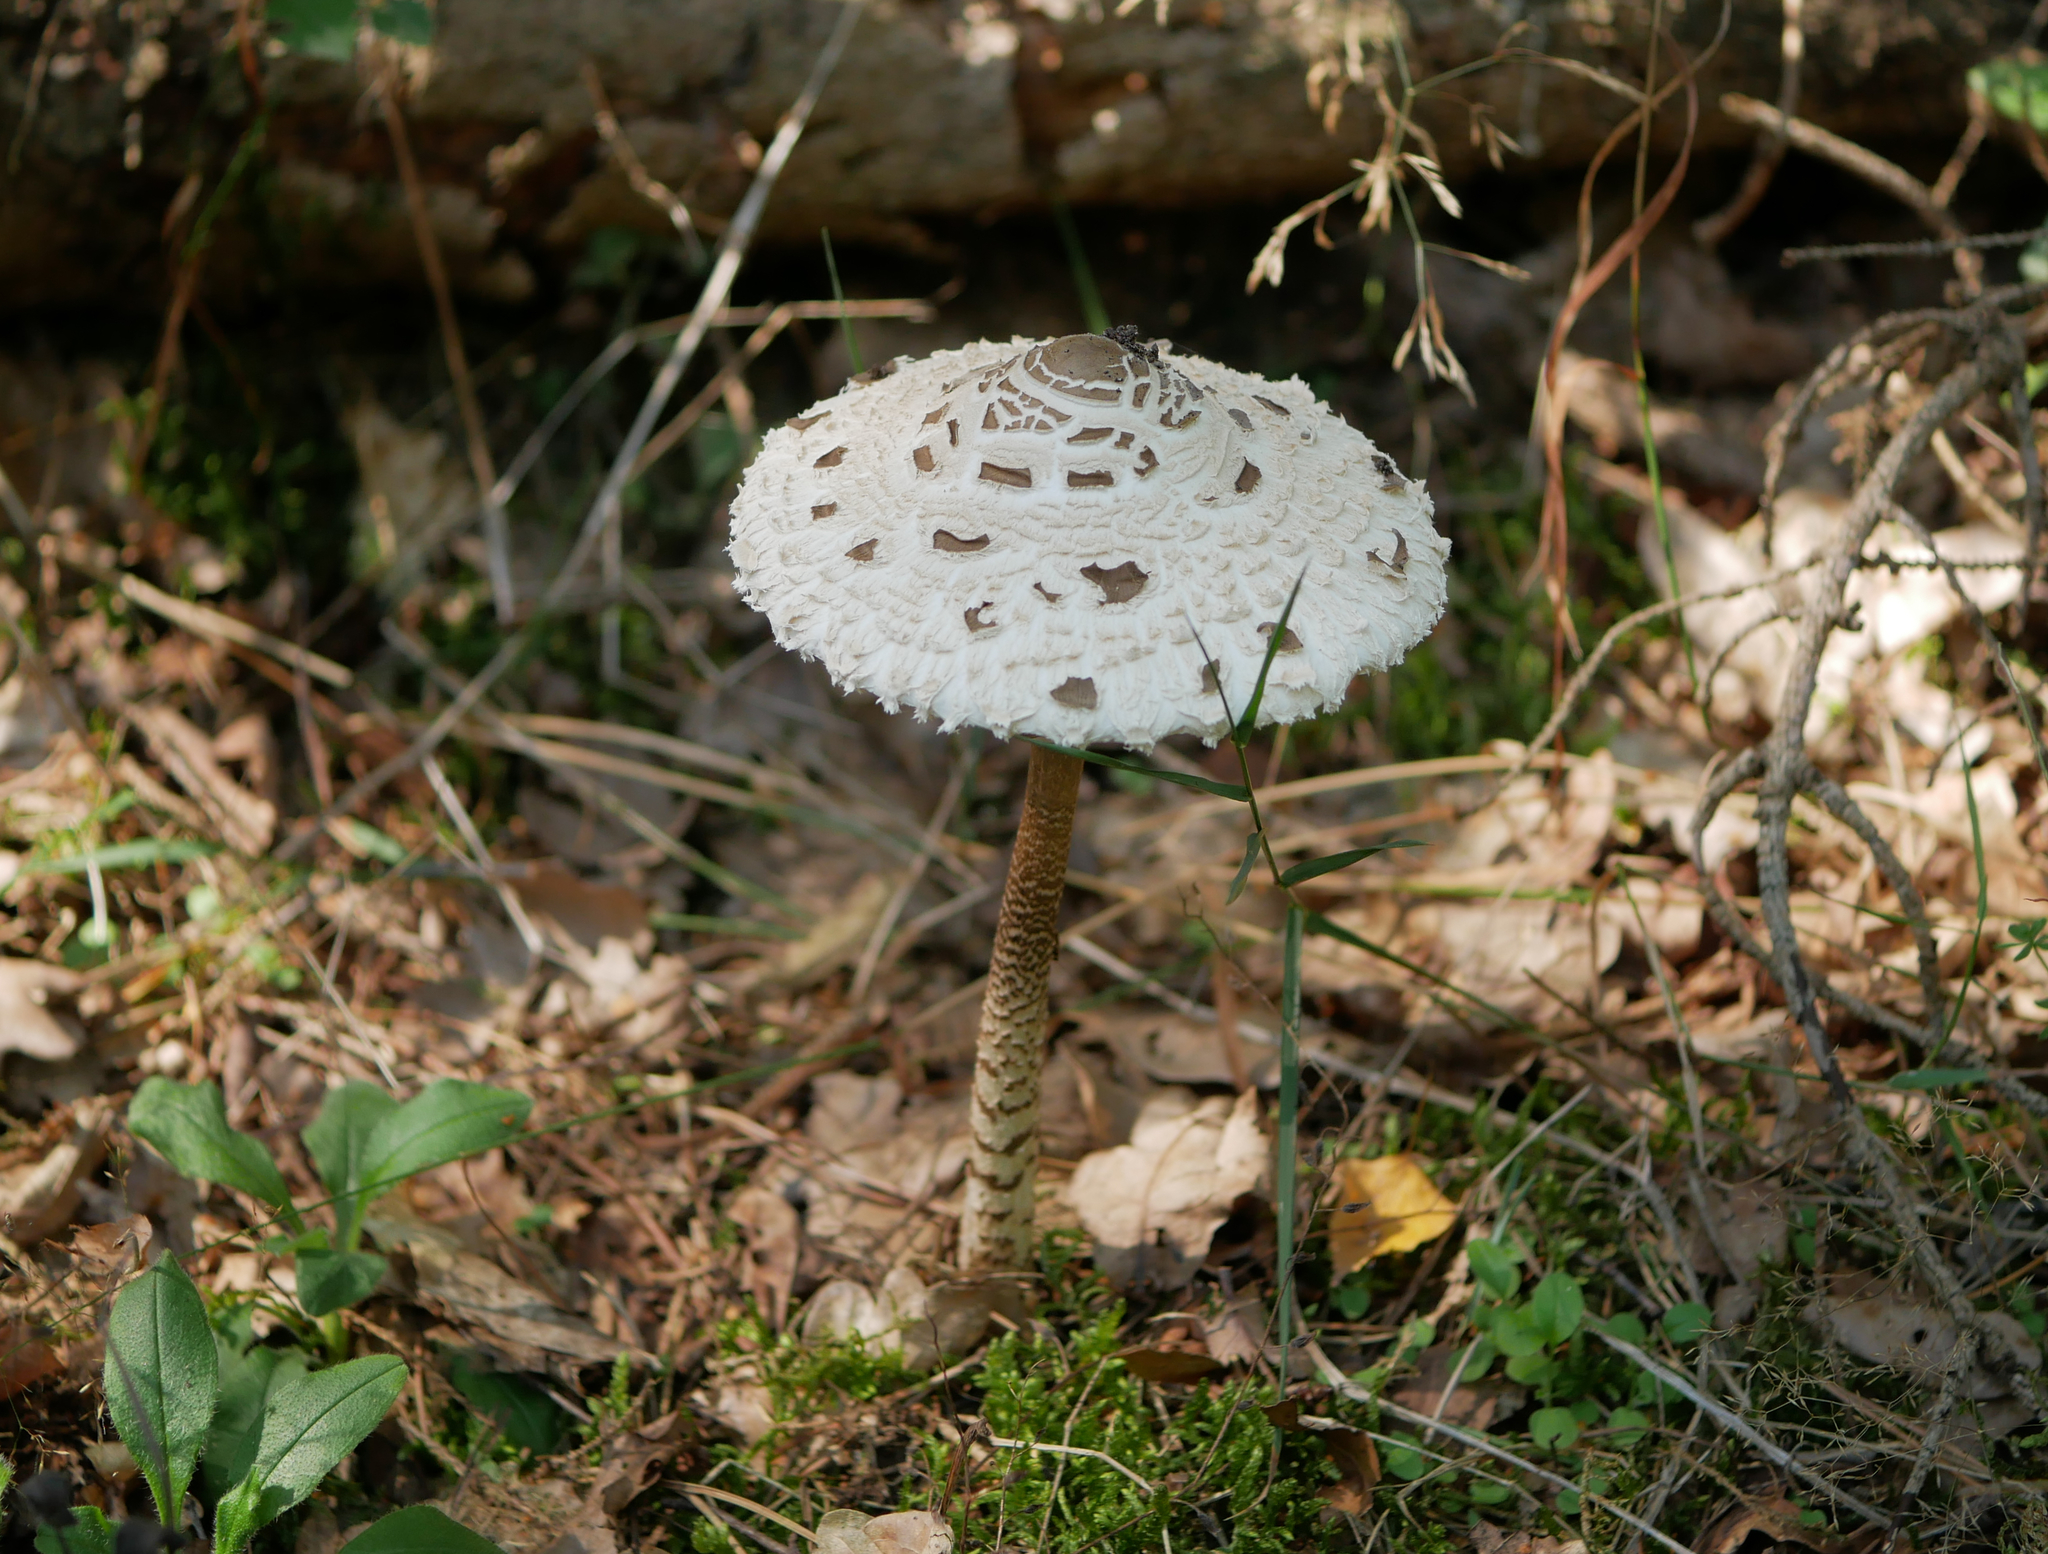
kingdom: Fungi
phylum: Basidiomycota
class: Agaricomycetes
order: Agaricales
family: Agaricaceae
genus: Macrolepiota
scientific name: Macrolepiota procera
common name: Parasol
